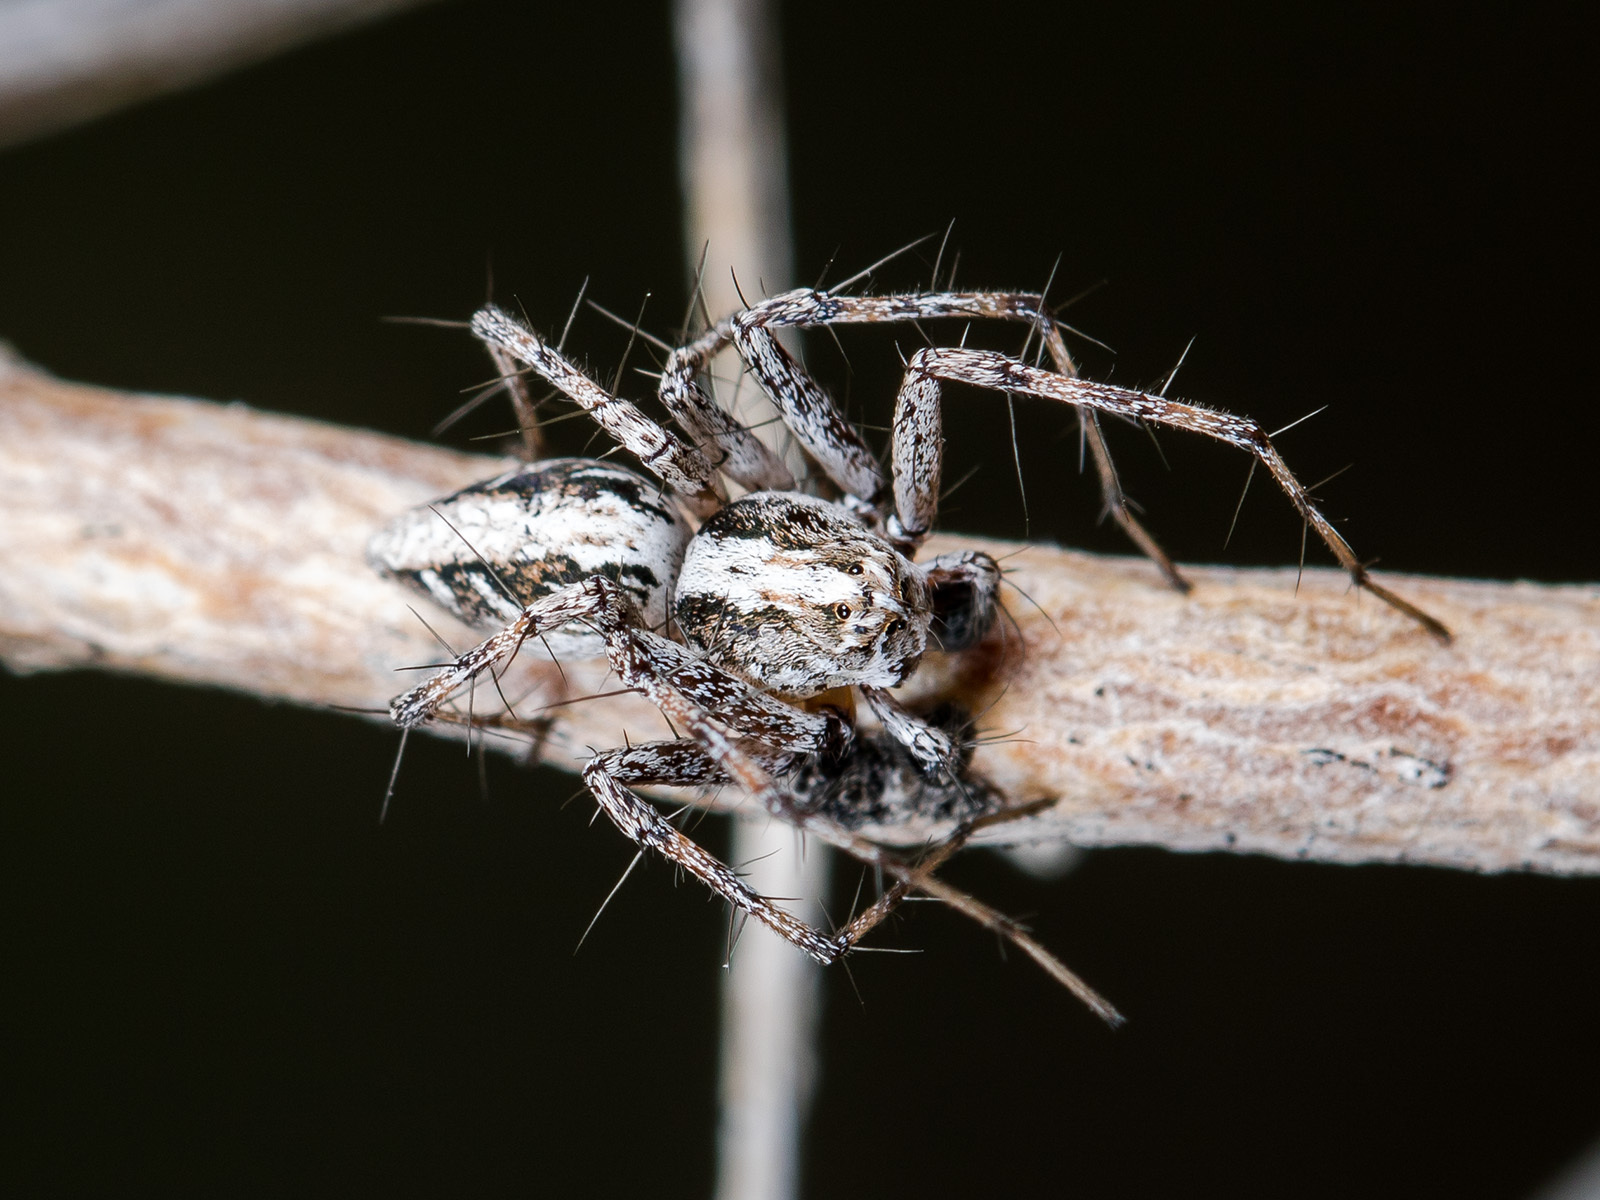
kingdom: Animalia
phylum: Arthropoda
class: Arachnida
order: Araneae
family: Oxyopidae
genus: Oxyopes
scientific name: Oxyopes globifer
